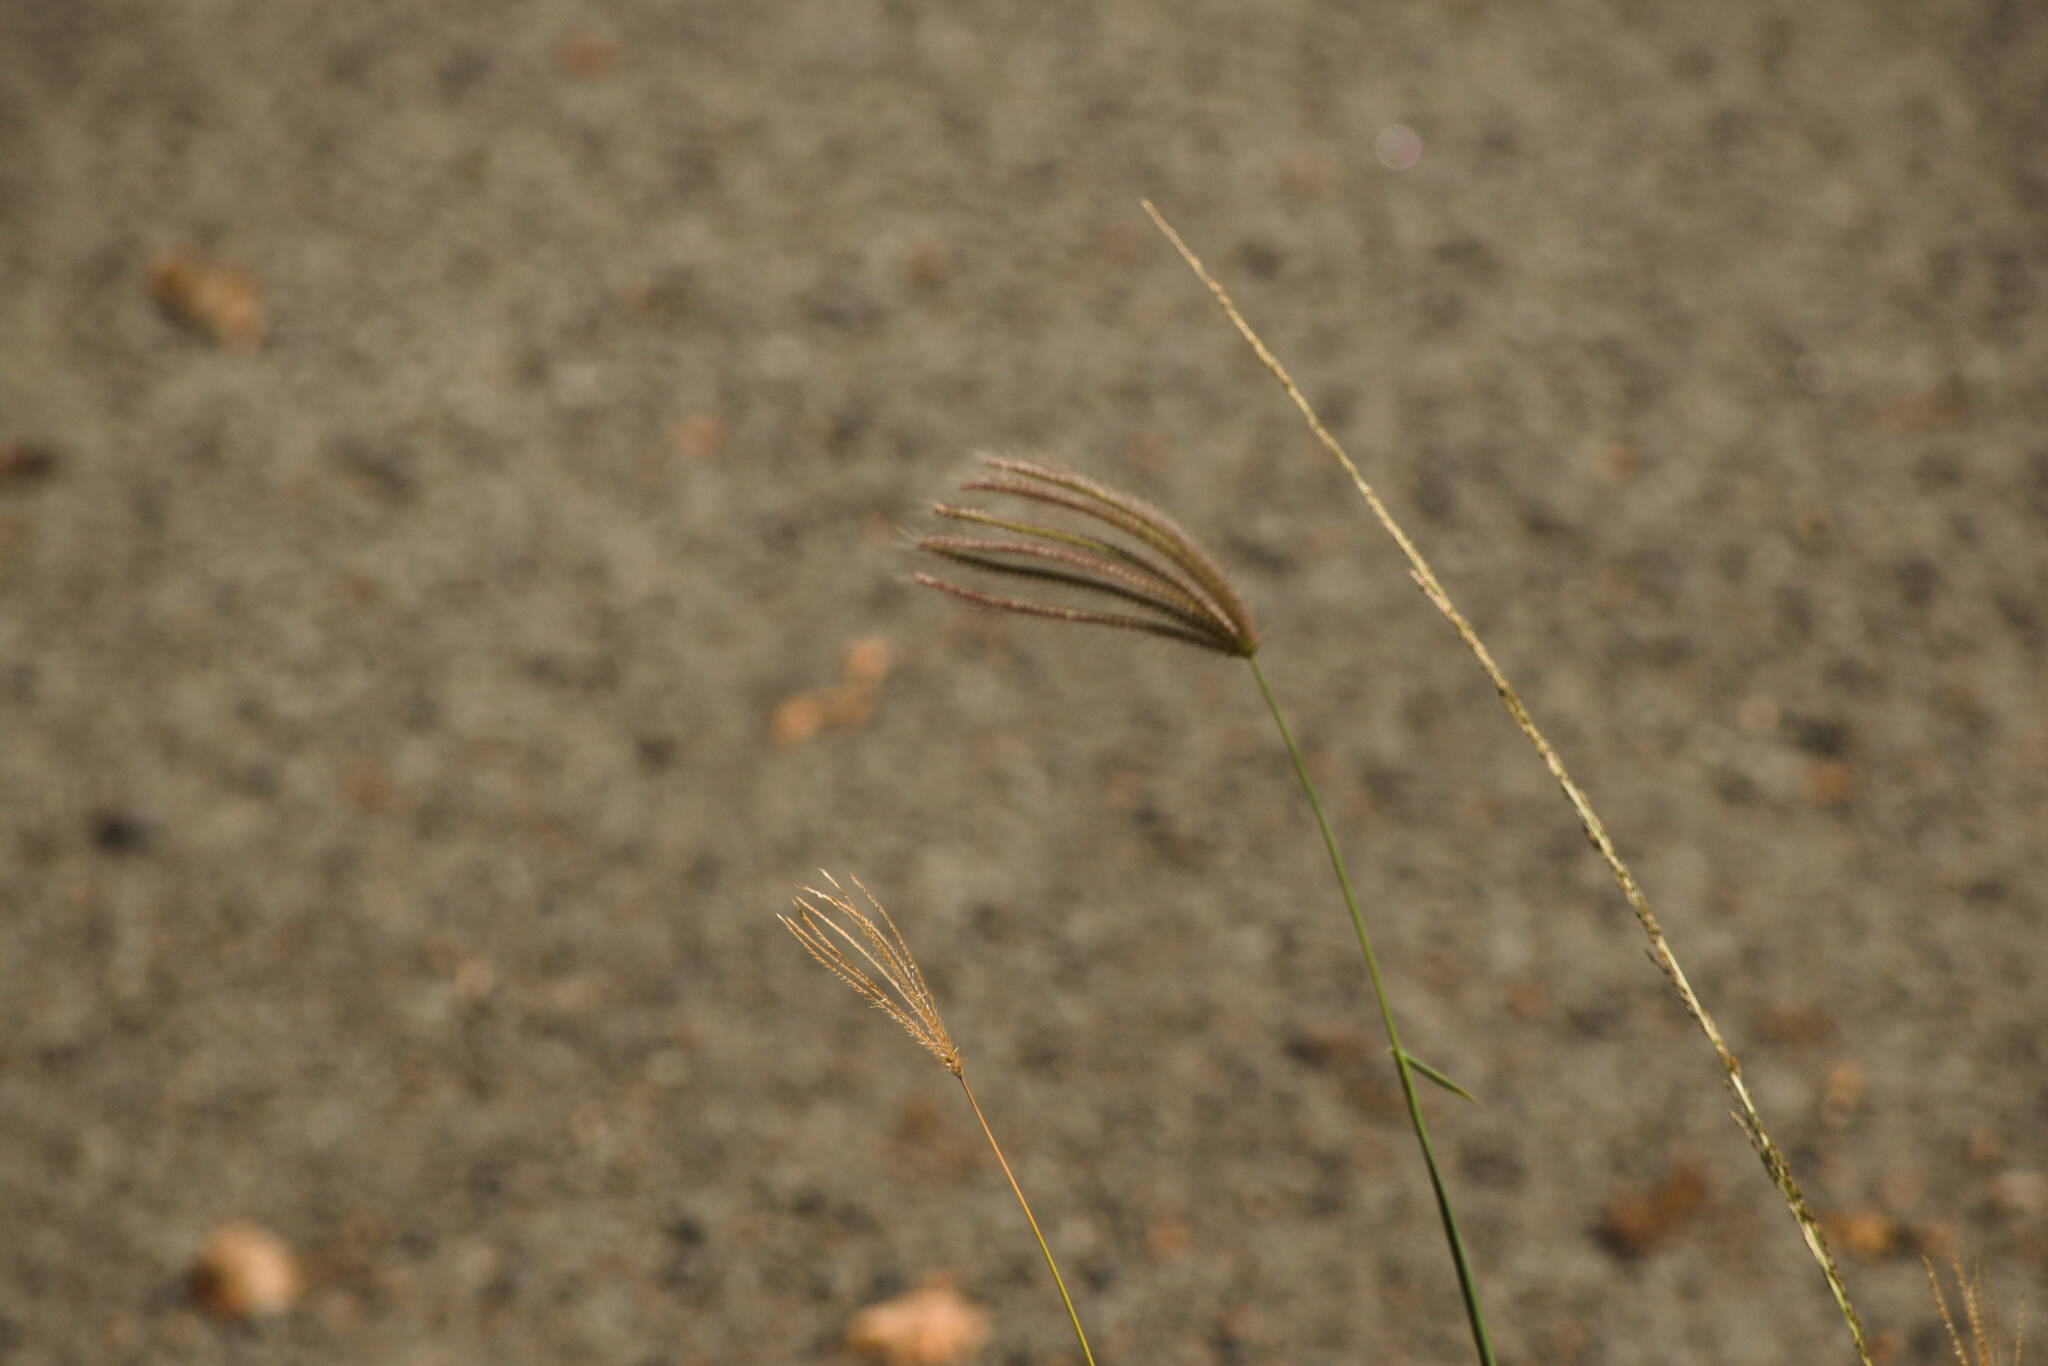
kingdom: Plantae
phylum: Tracheophyta
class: Liliopsida
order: Poales
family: Poaceae
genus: Chloris
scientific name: Chloris barbata
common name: Swollen fingergrass
